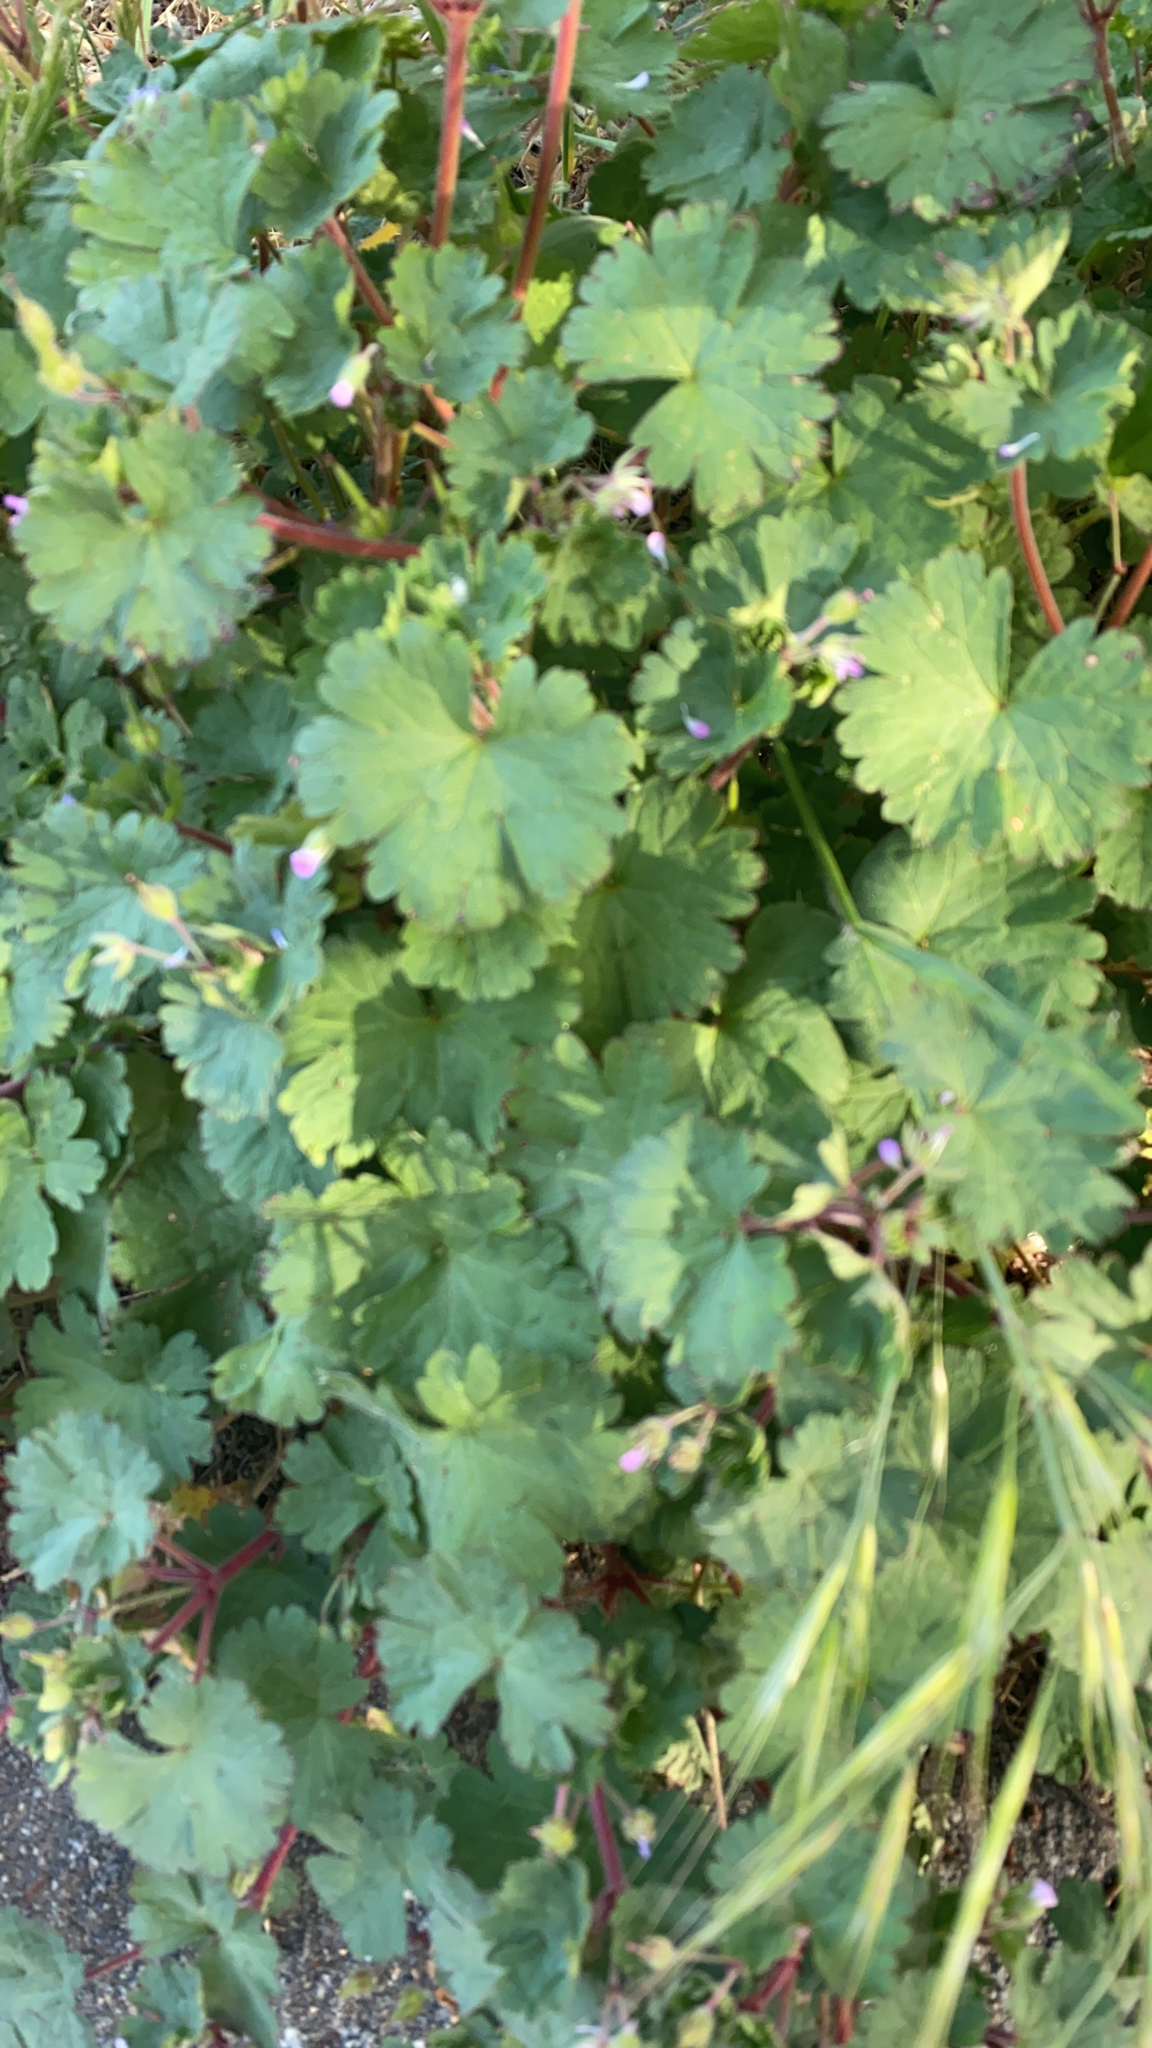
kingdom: Plantae
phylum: Tracheophyta
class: Magnoliopsida
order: Geraniales
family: Geraniaceae
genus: Geranium
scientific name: Geranium rotundifolium
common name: Round-leaved crane's-bill
